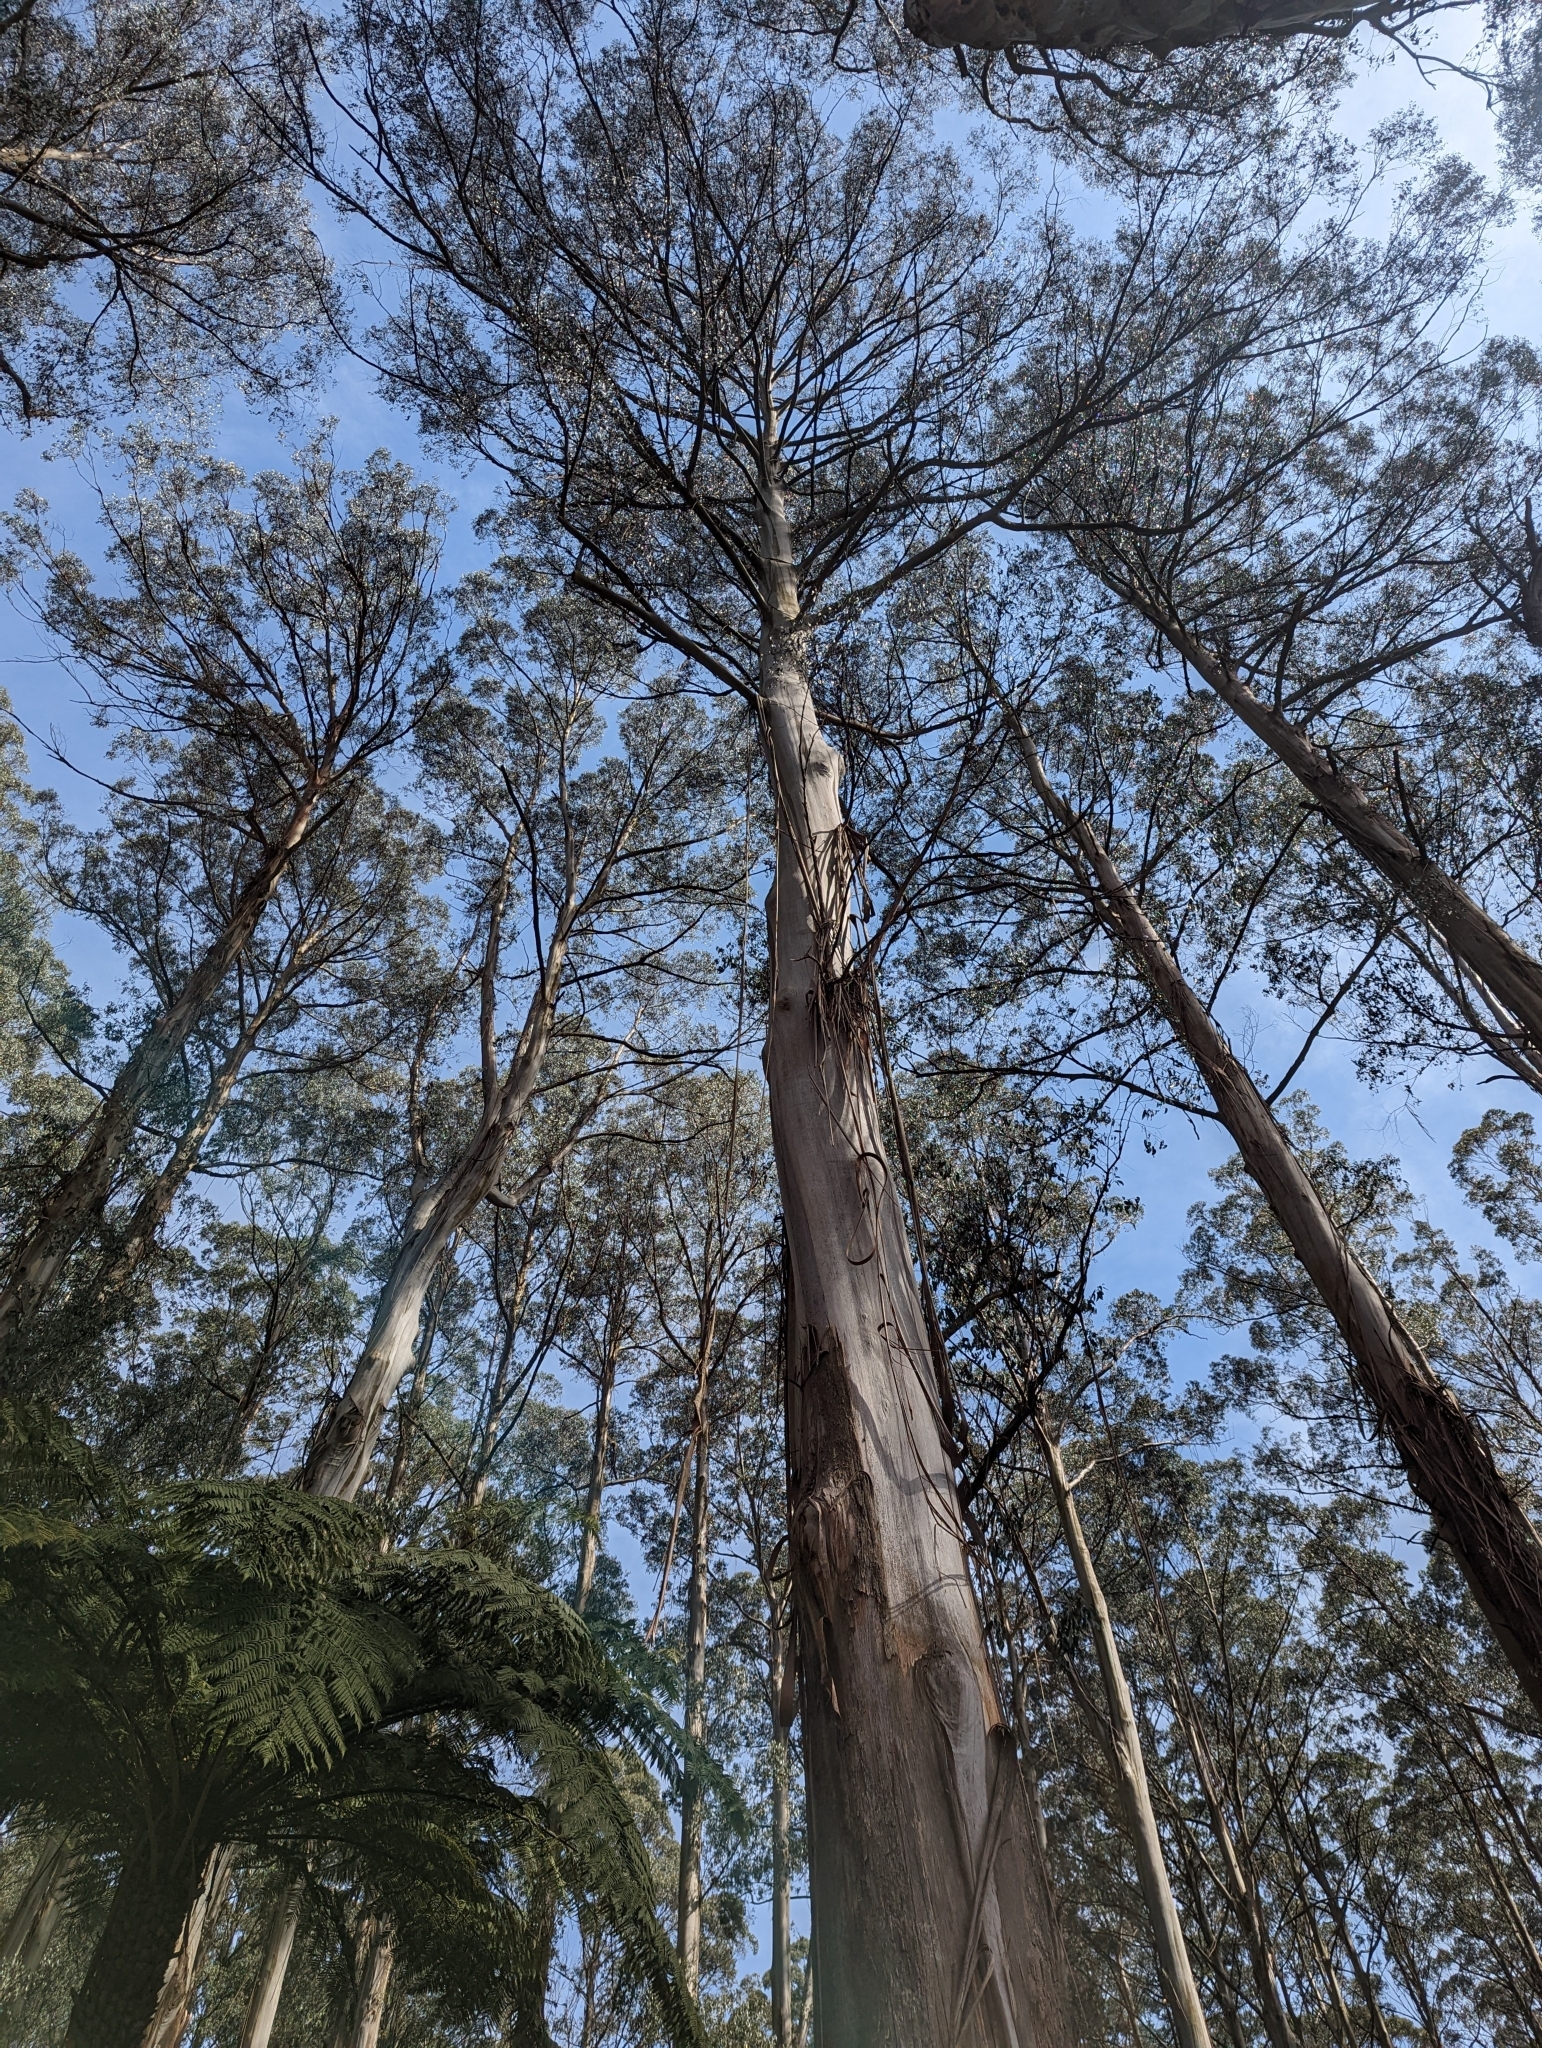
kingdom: Plantae
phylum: Tracheophyta
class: Magnoliopsida
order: Myrtales
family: Myrtaceae
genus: Eucalyptus
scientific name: Eucalyptus regnans
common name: Stringy gum
